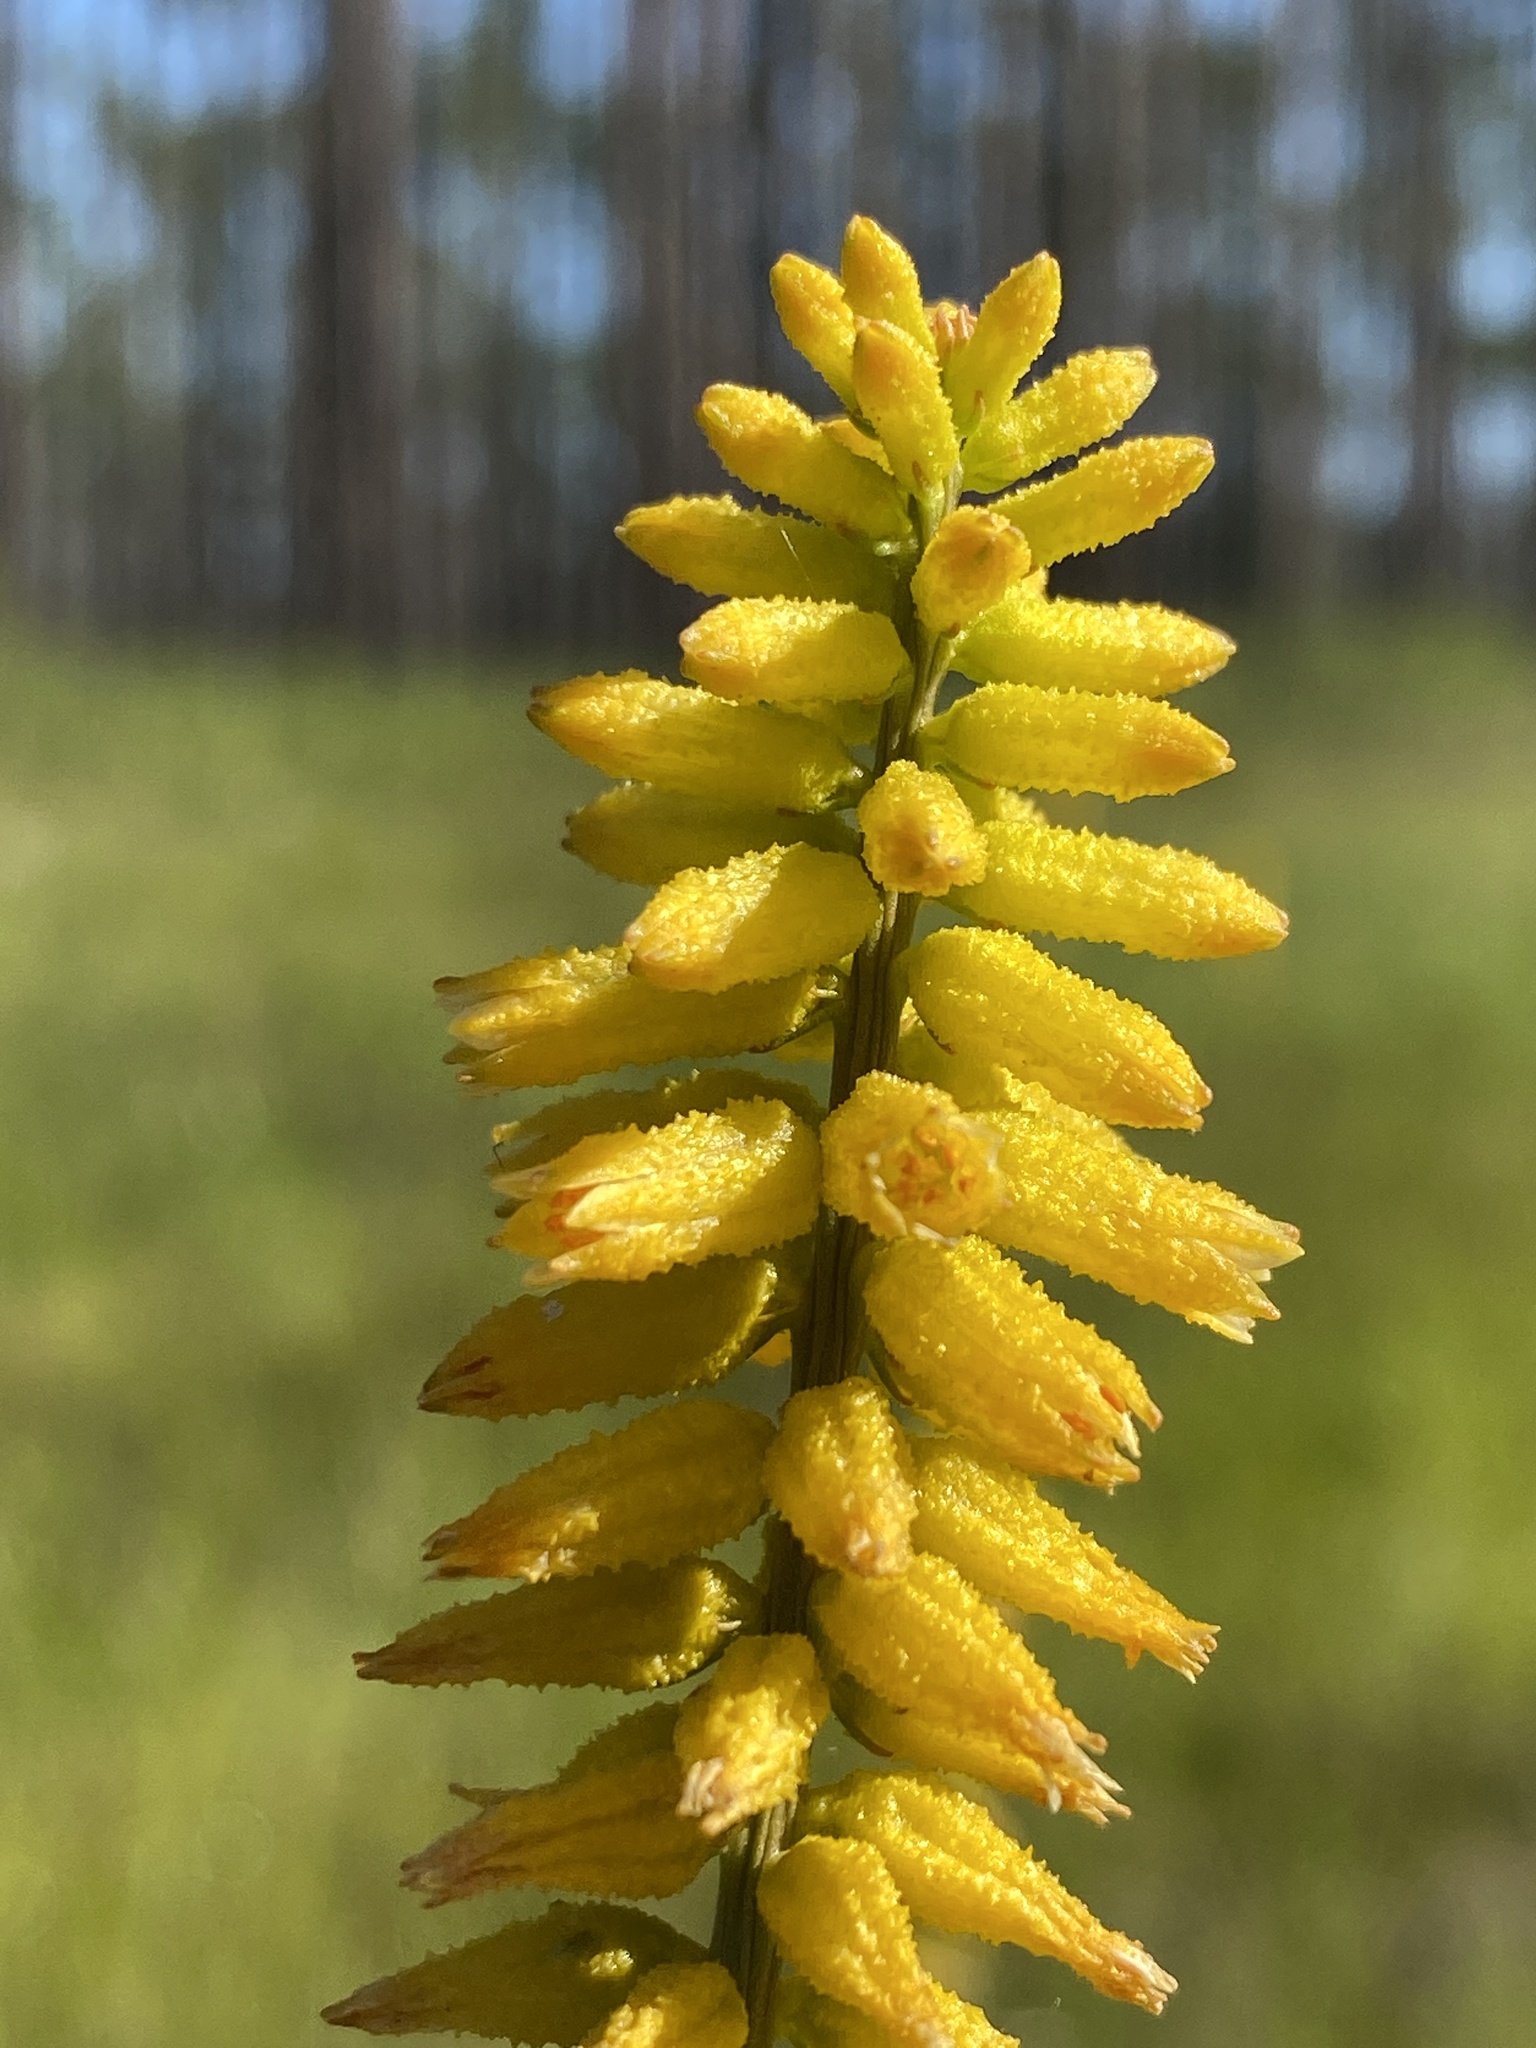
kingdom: Plantae
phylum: Tracheophyta
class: Liliopsida
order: Dioscoreales
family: Nartheciaceae
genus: Aletris
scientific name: Aletris lutea
